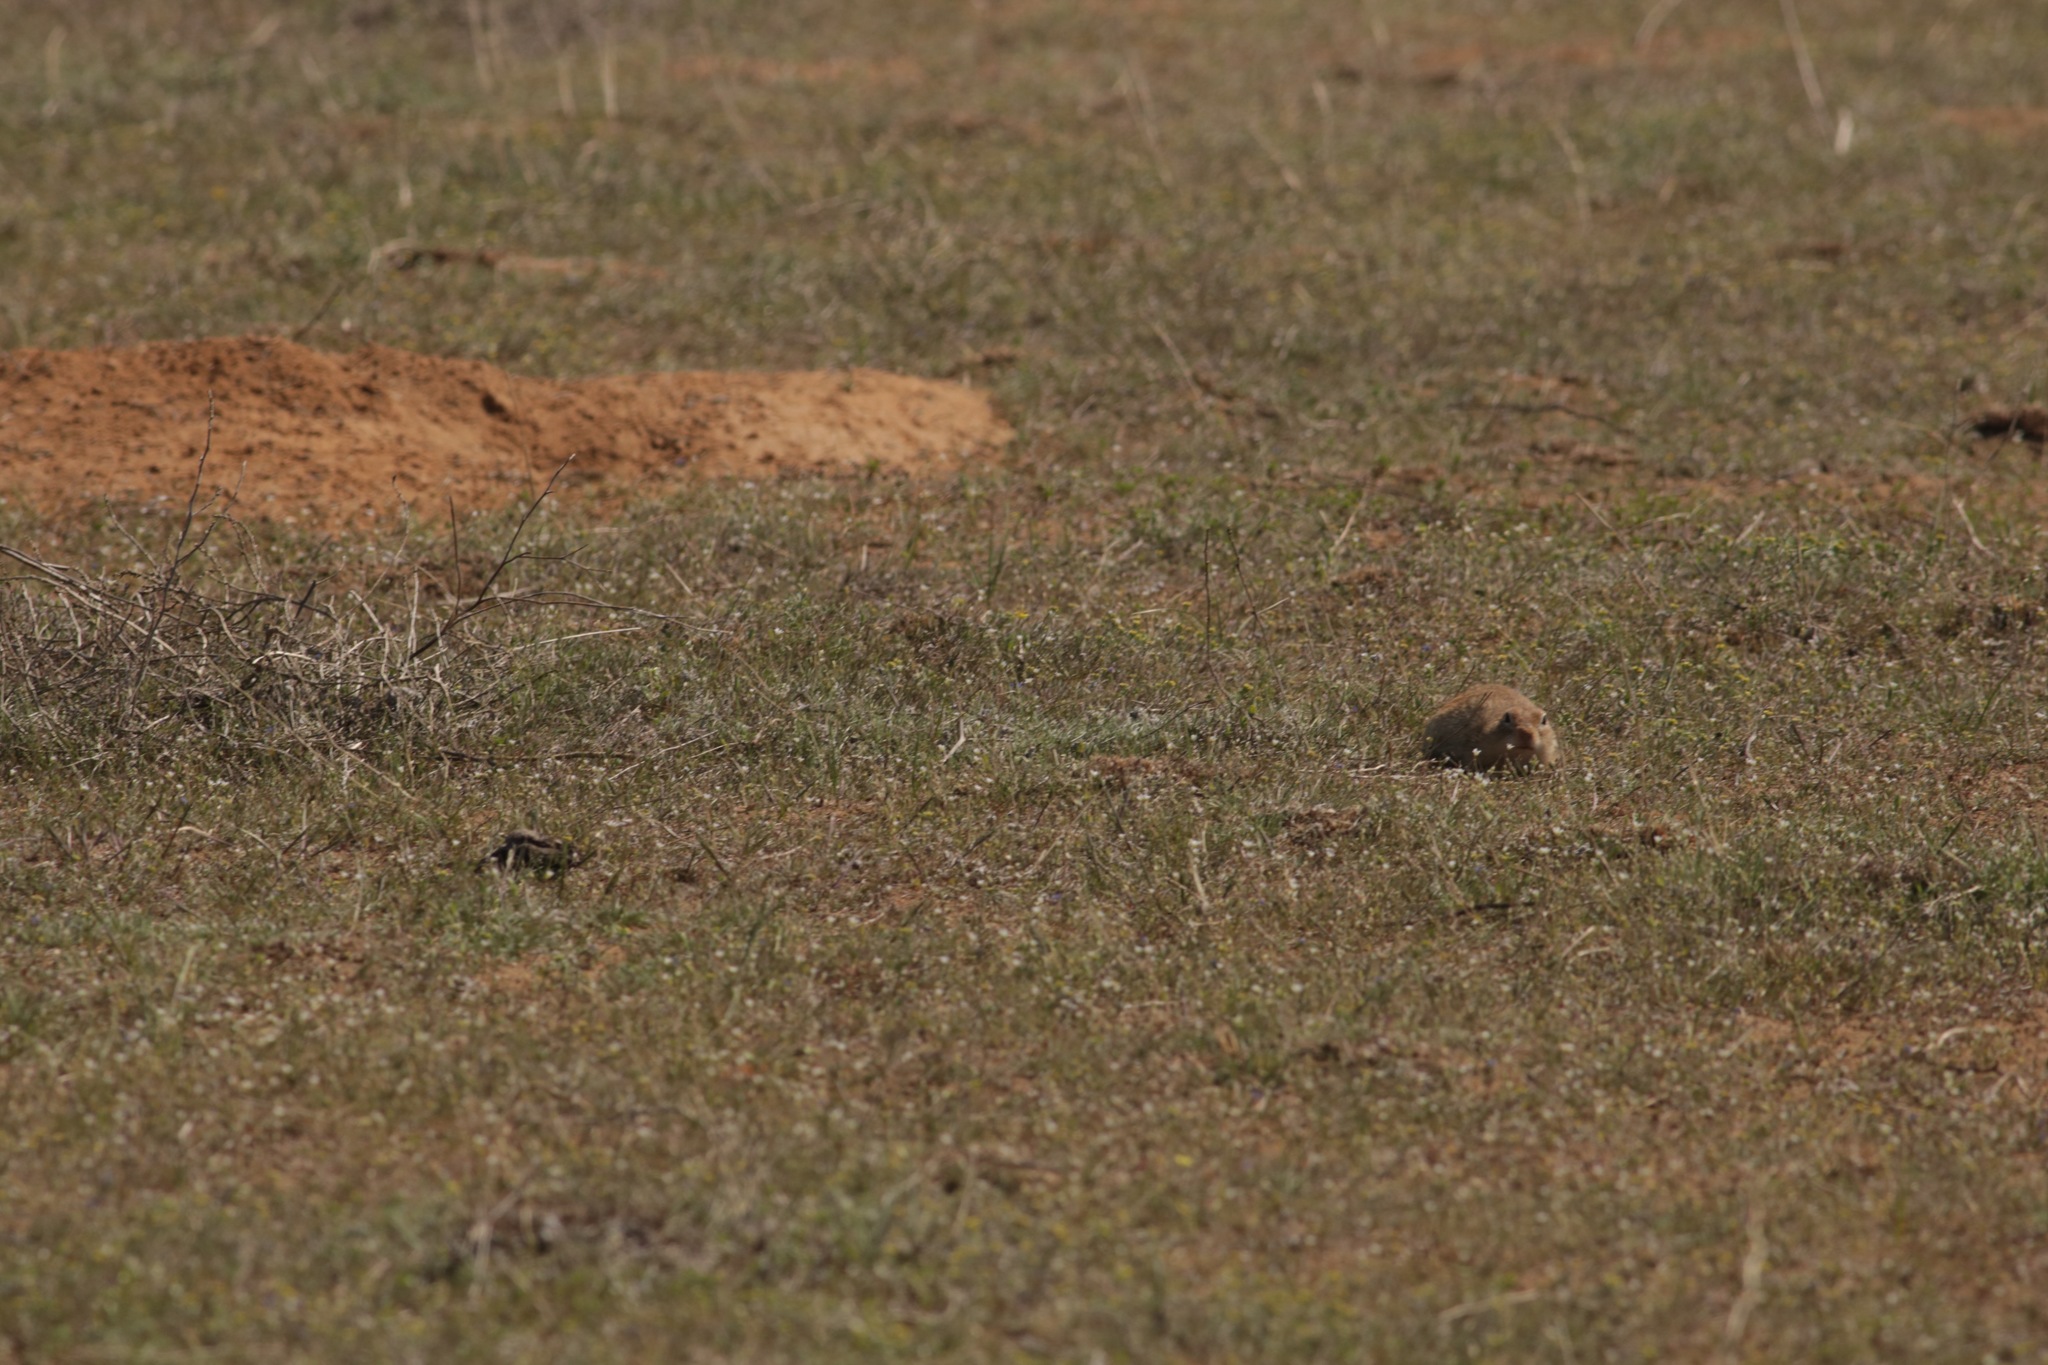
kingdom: Animalia
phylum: Chordata
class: Mammalia
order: Rodentia
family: Sciuridae
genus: Spermophilus
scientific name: Spermophilus pygmaeus
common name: Little ground squirrel
